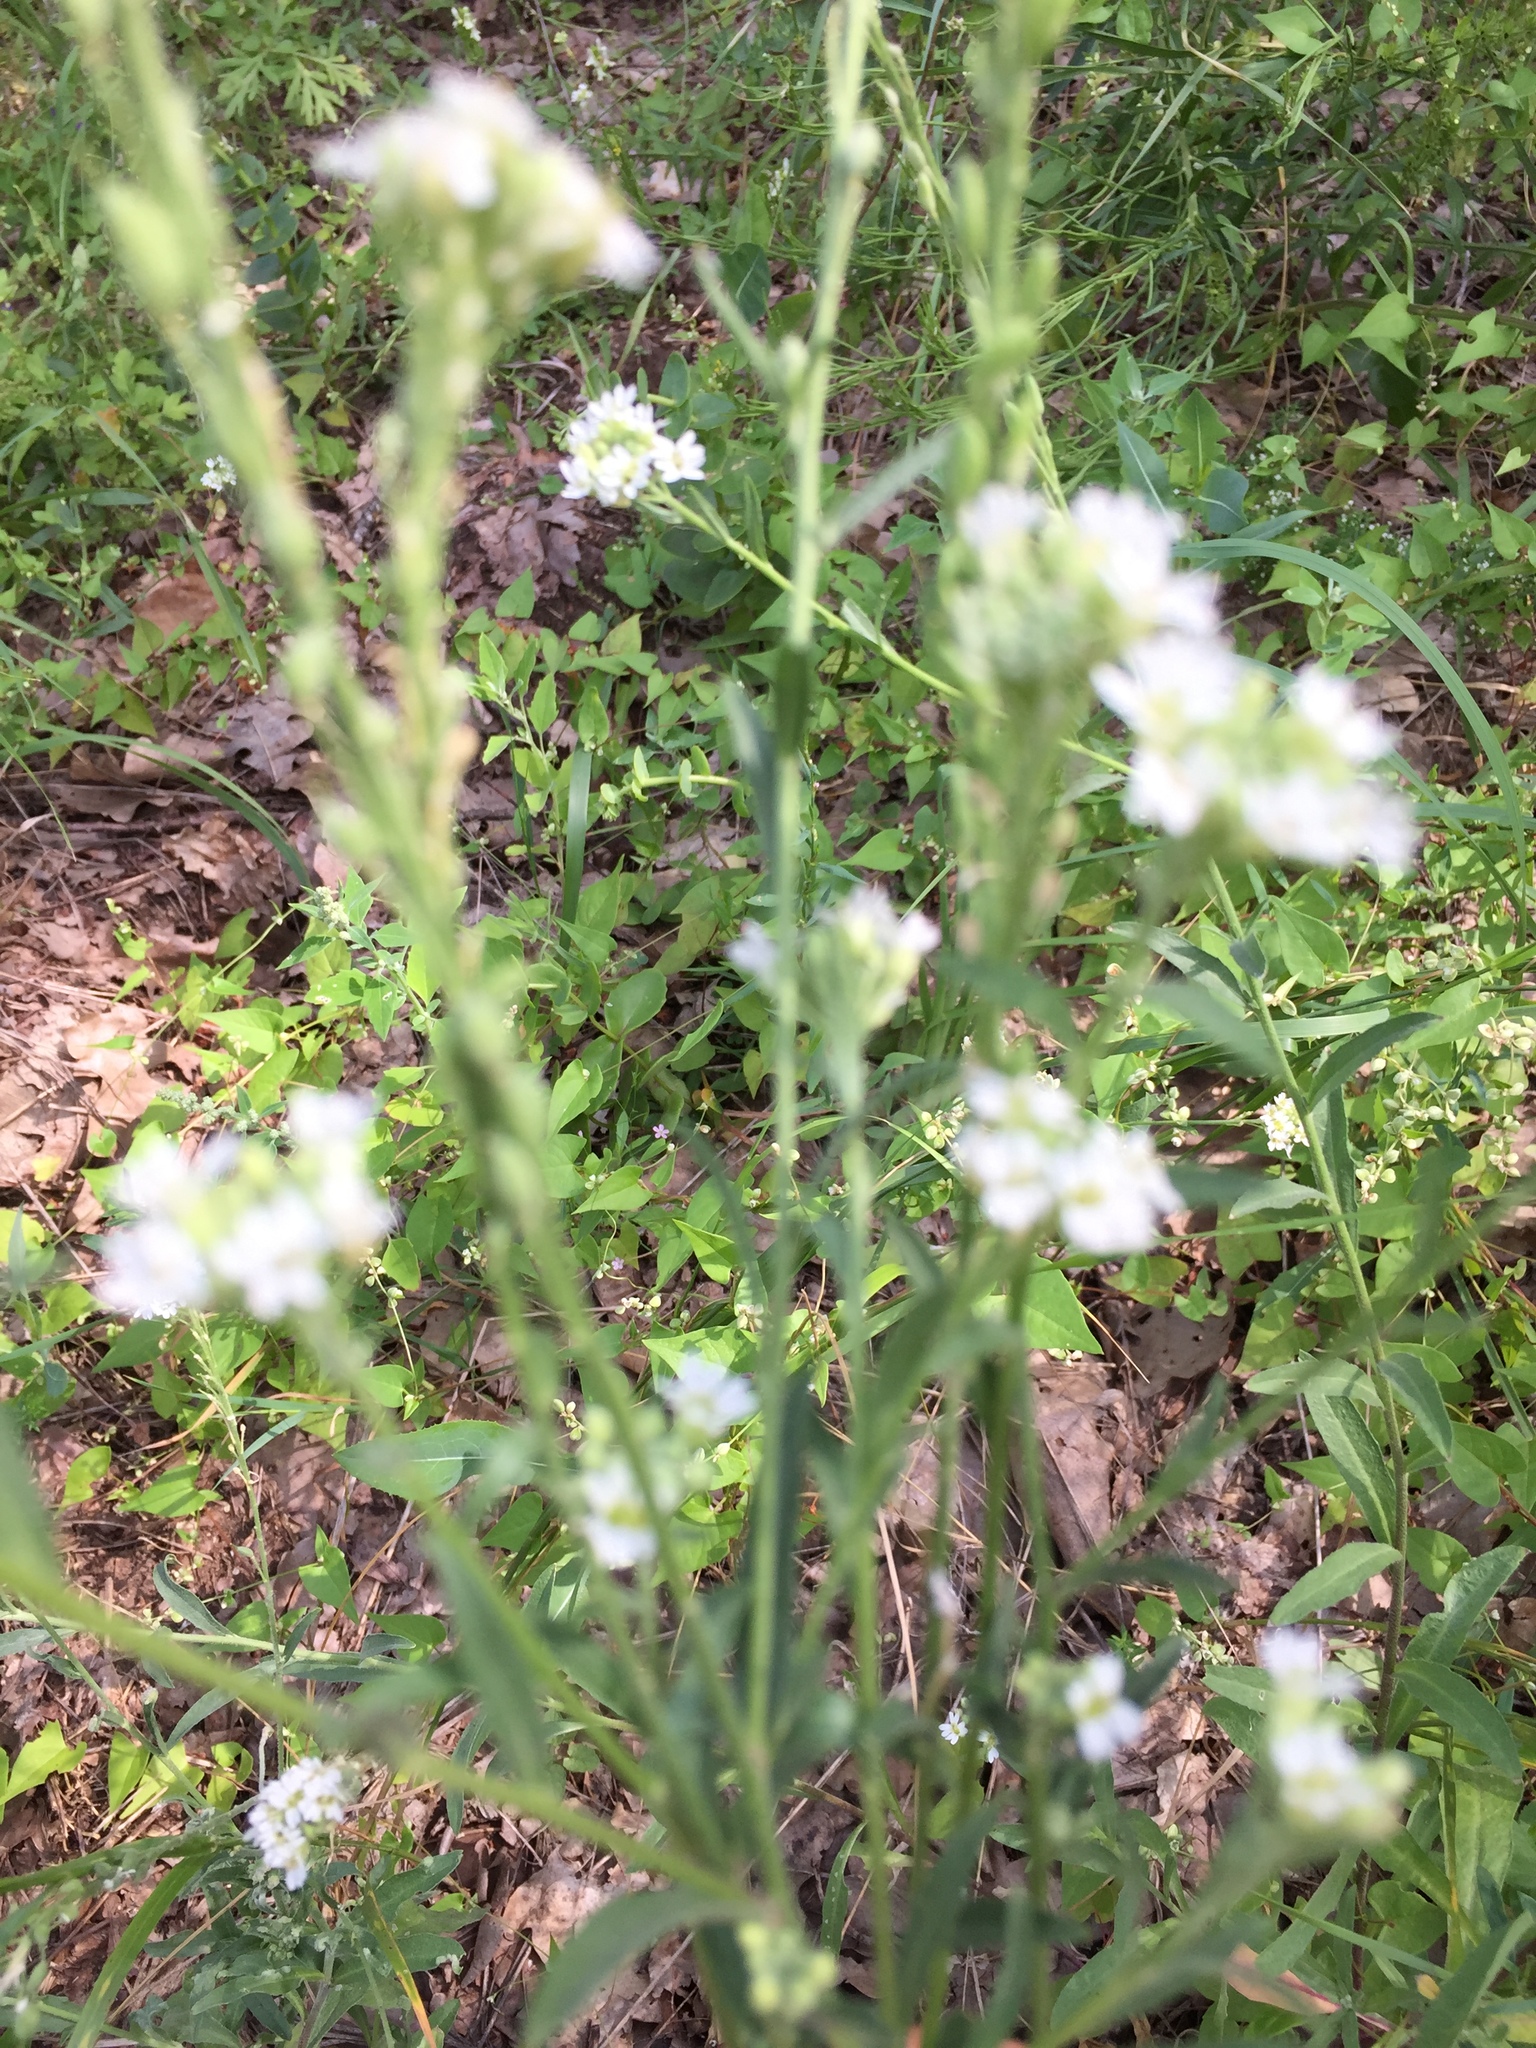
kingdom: Plantae
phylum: Tracheophyta
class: Magnoliopsida
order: Brassicales
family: Brassicaceae
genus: Berteroa
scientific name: Berteroa incana
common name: Hoary alison
